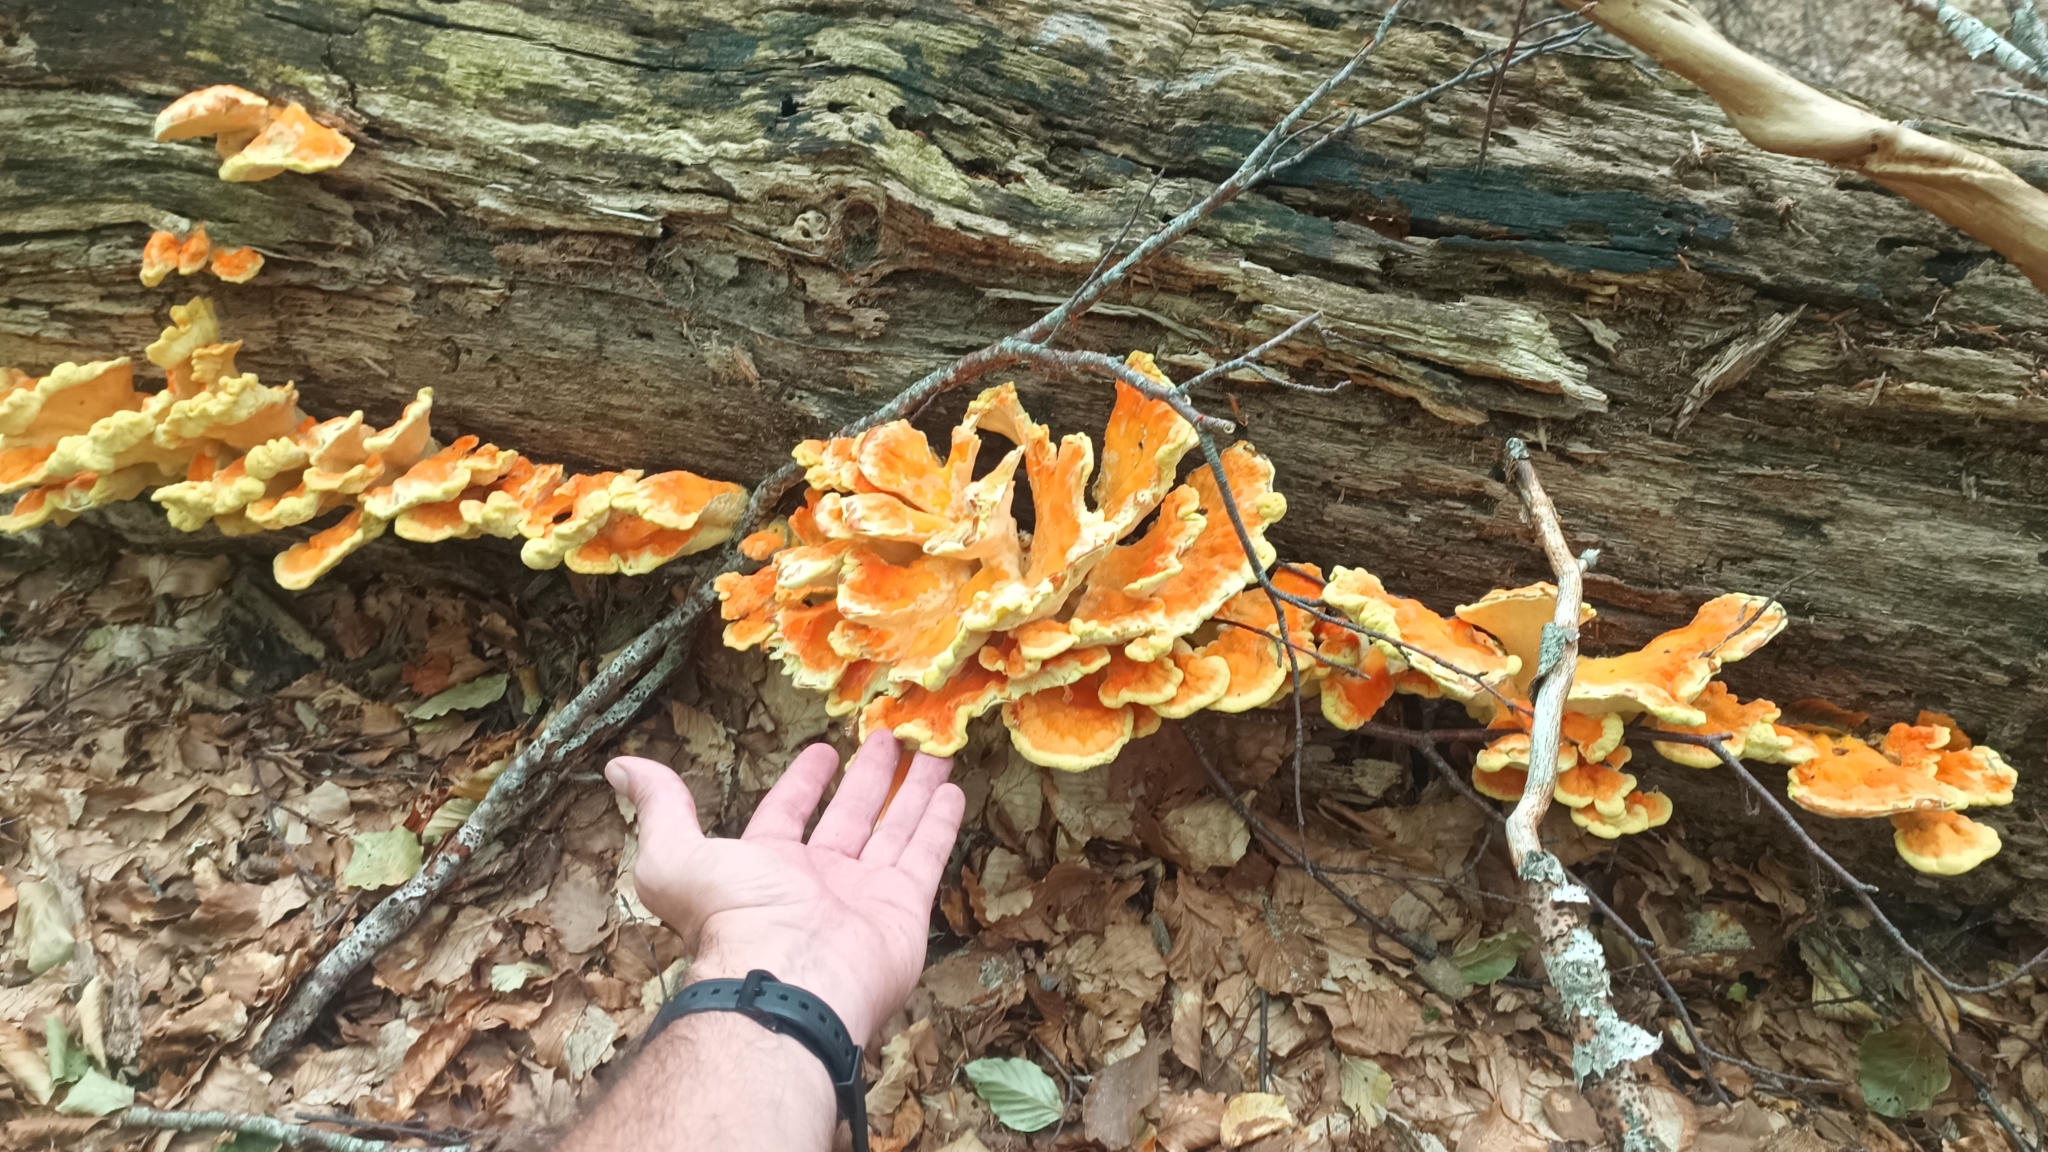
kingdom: Fungi
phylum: Basidiomycota
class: Agaricomycetes
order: Polyporales
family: Laetiporaceae
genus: Laetiporus
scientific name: Laetiporus sulphureus
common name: Chicken of the woods
